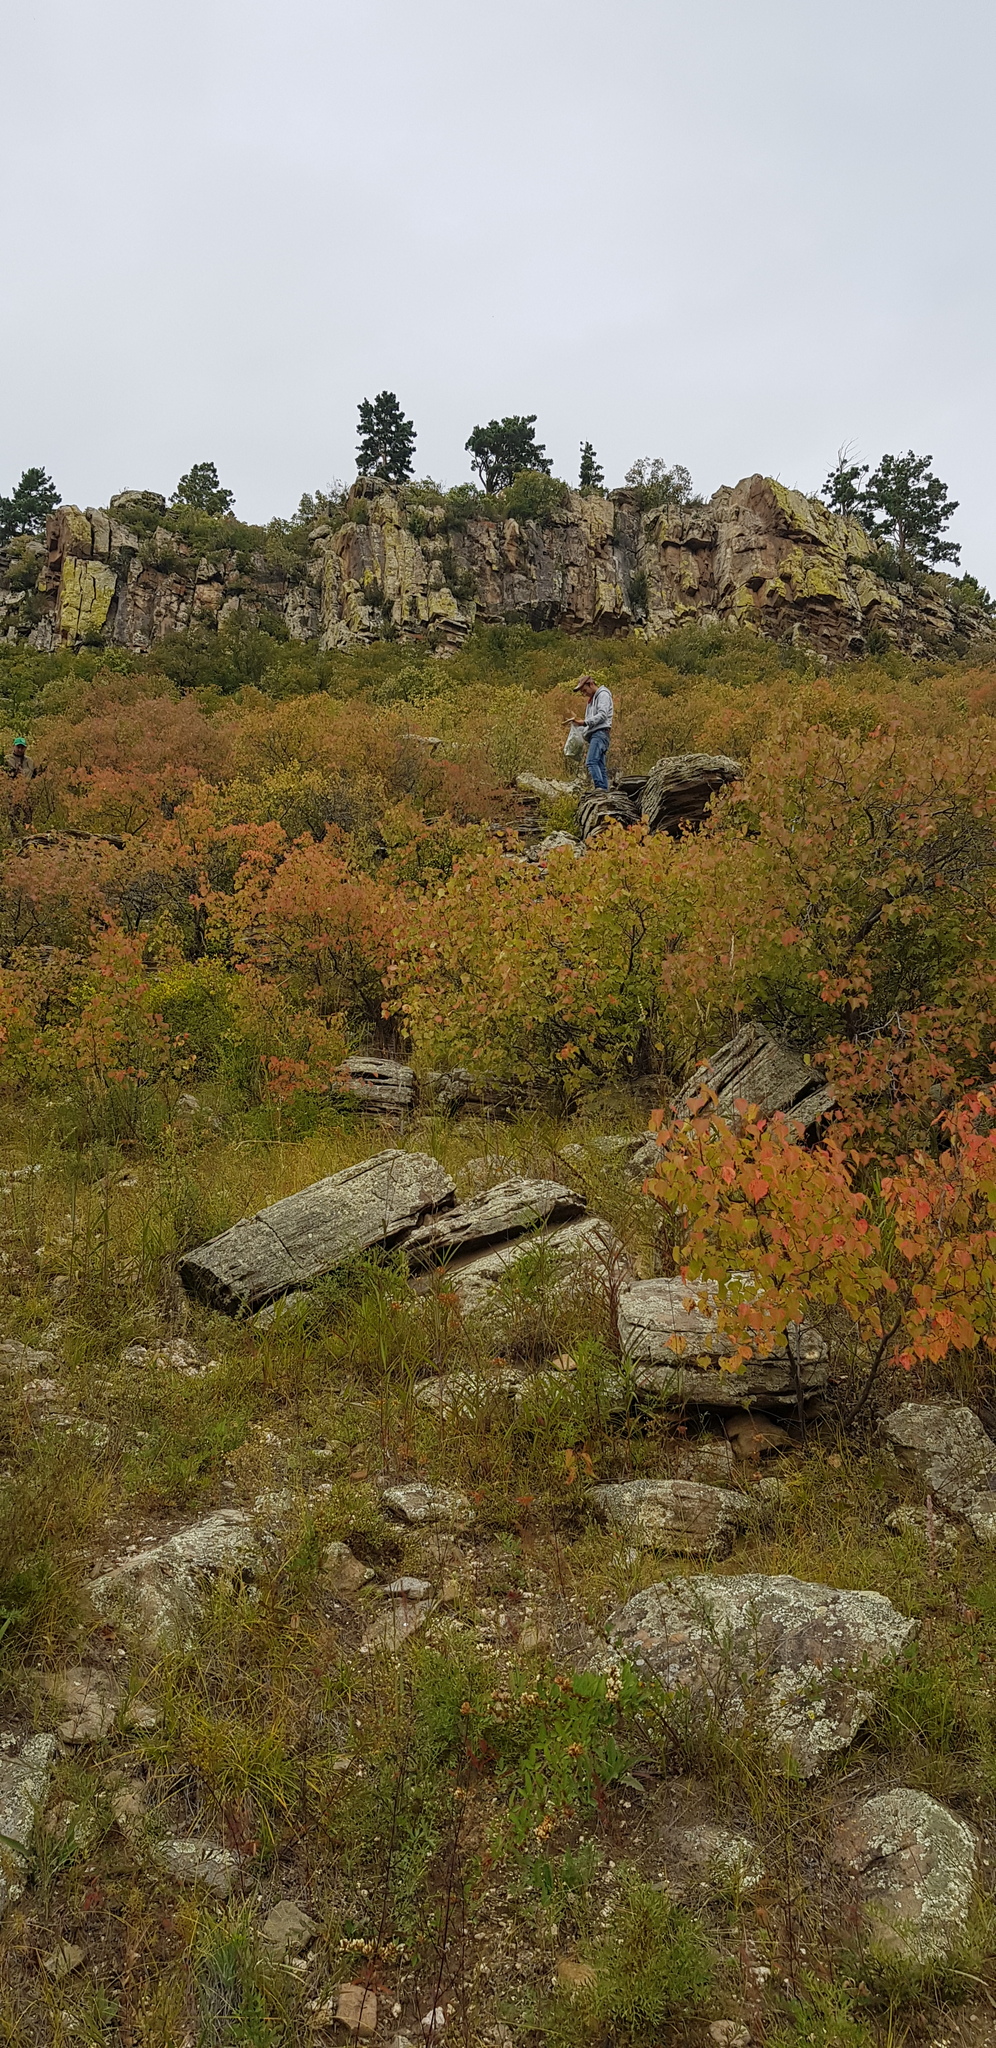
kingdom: Plantae
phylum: Tracheophyta
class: Magnoliopsida
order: Rosales
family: Rosaceae
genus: Prunus
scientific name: Prunus sibirica
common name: Siberian apricot
